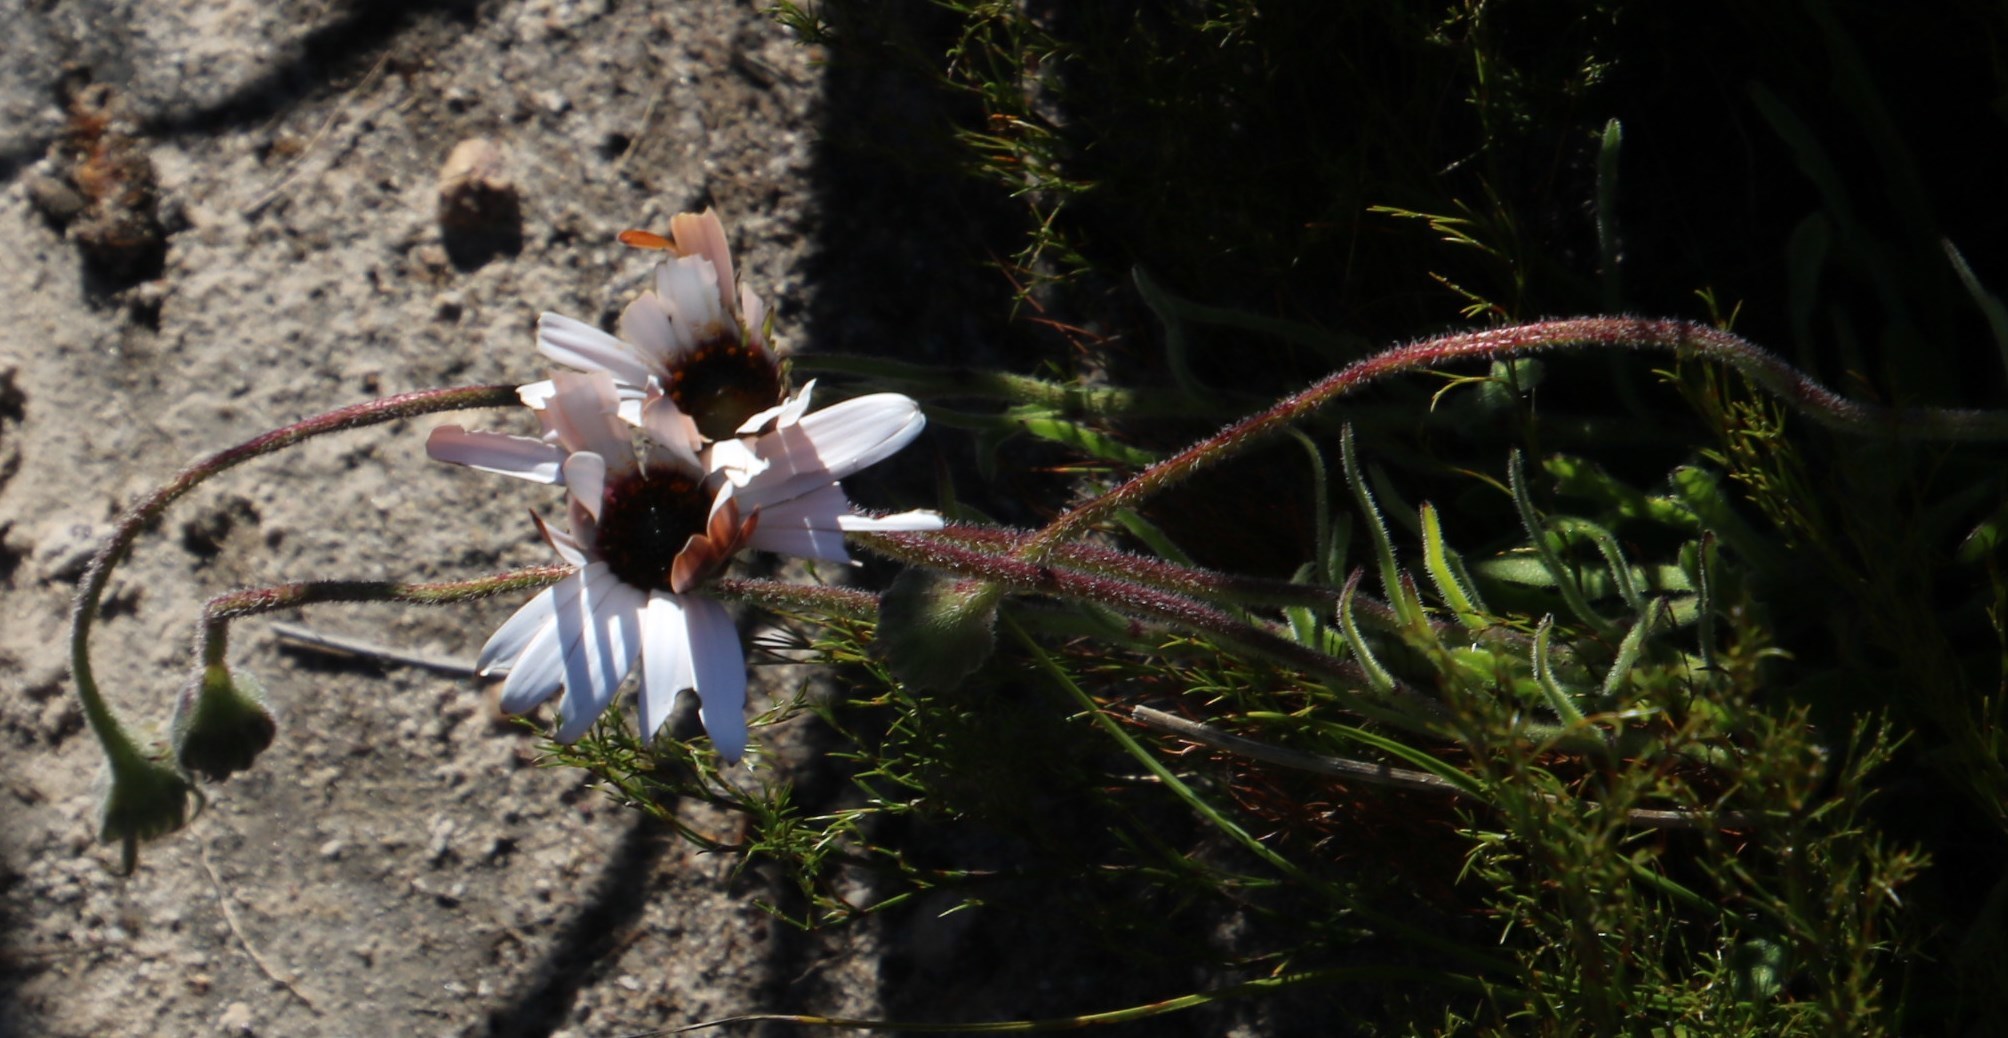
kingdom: Plantae
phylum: Tracheophyta
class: Magnoliopsida
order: Asterales
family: Asteraceae
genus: Dimorphotheca
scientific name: Dimorphotheca nudicaulis
